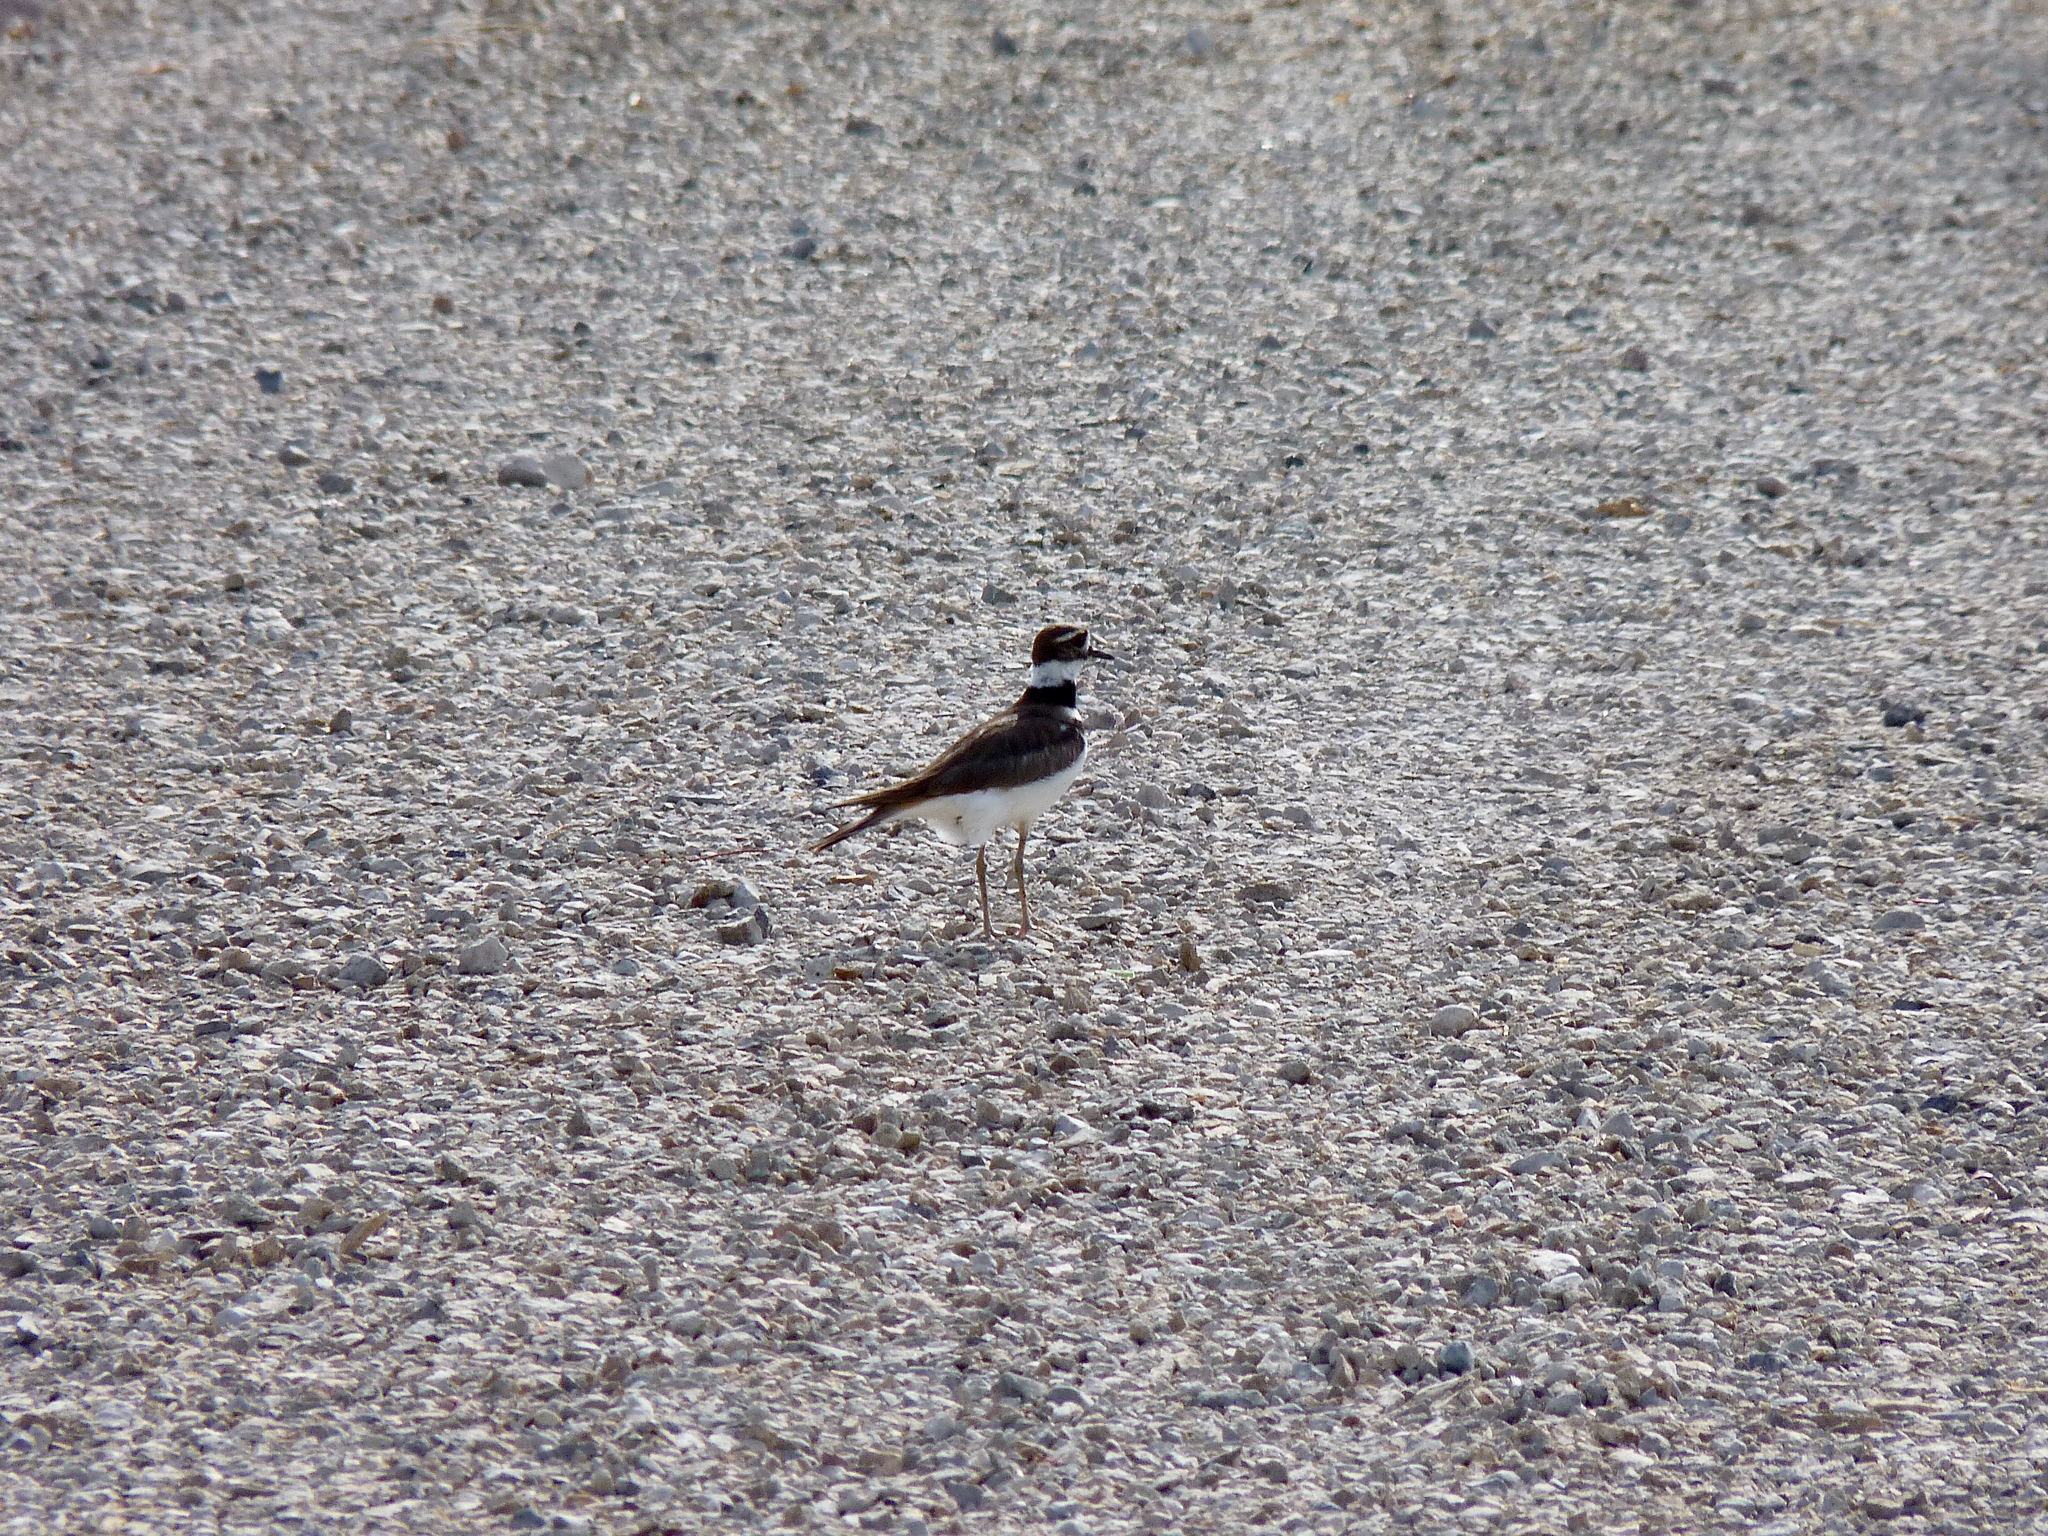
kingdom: Animalia
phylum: Chordata
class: Aves
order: Charadriiformes
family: Charadriidae
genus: Charadrius
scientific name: Charadrius vociferus
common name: Killdeer
